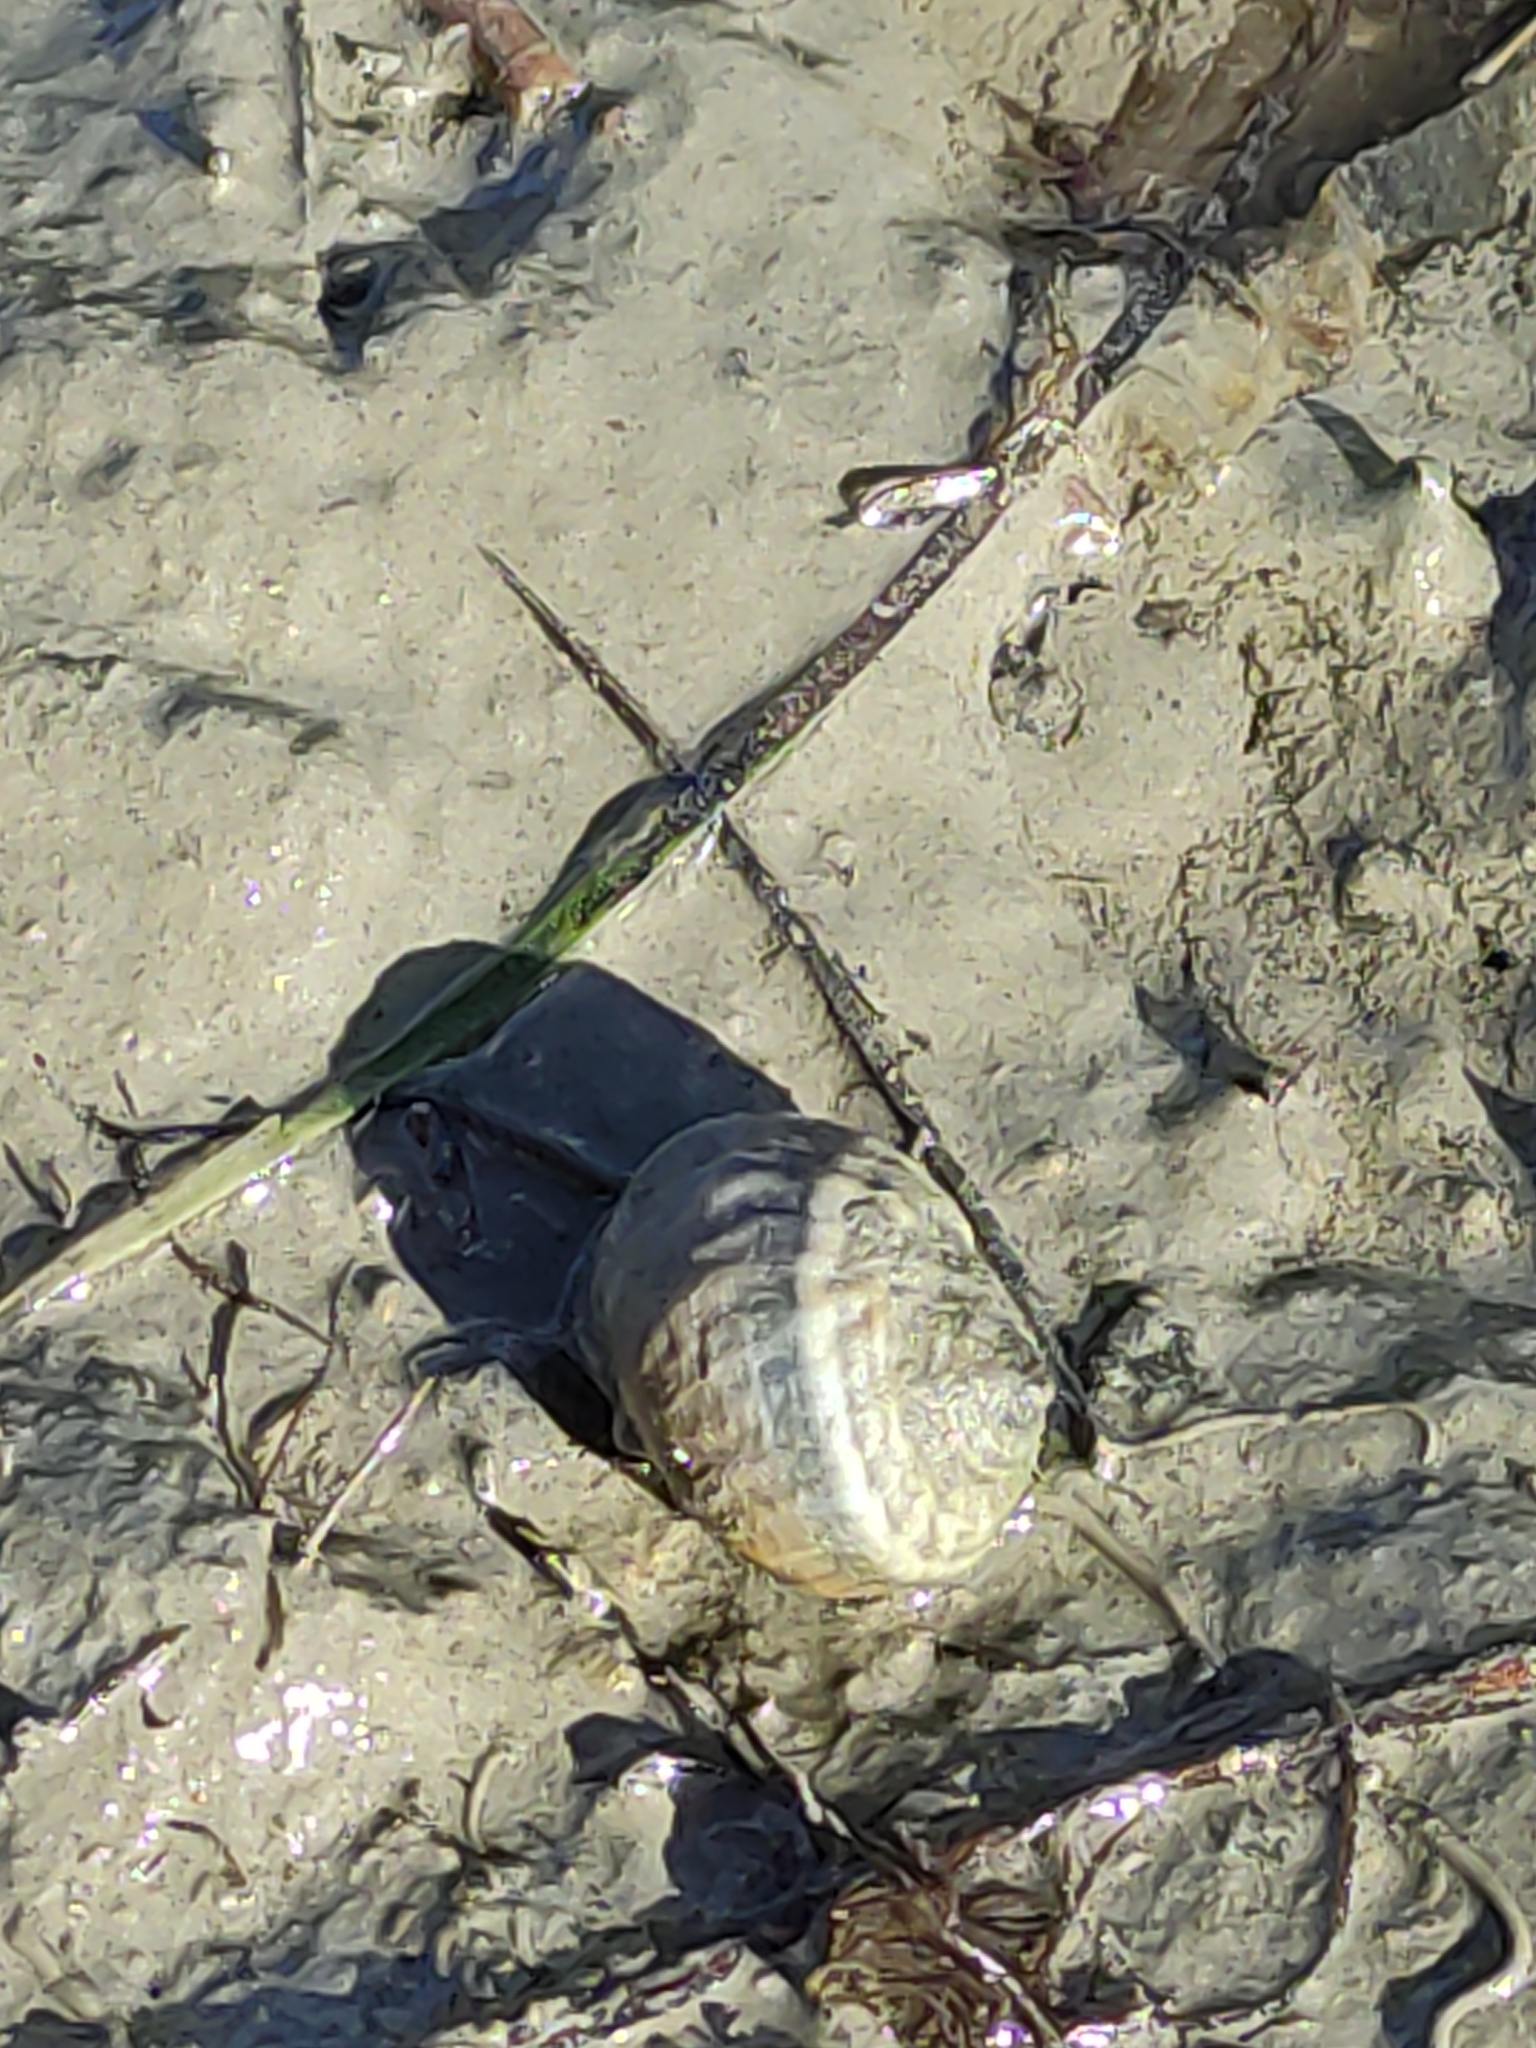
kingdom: Animalia
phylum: Mollusca
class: Gastropoda
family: Amphibolidae
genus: Amphibola
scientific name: Amphibola crenata
